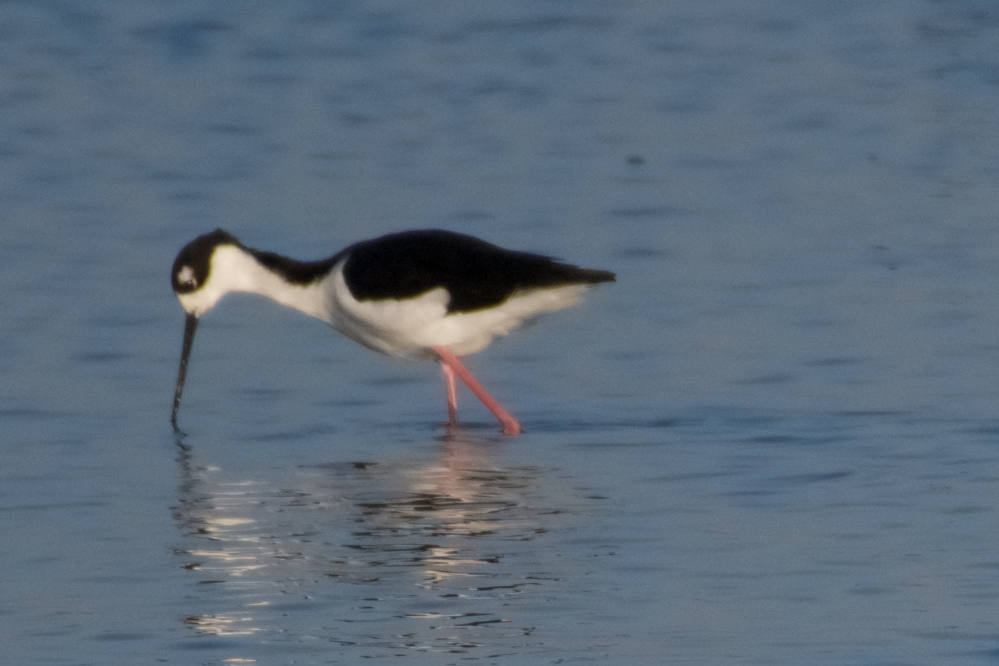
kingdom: Animalia
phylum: Chordata
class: Aves
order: Charadriiformes
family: Recurvirostridae
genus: Himantopus
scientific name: Himantopus mexicanus
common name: Black-necked stilt
